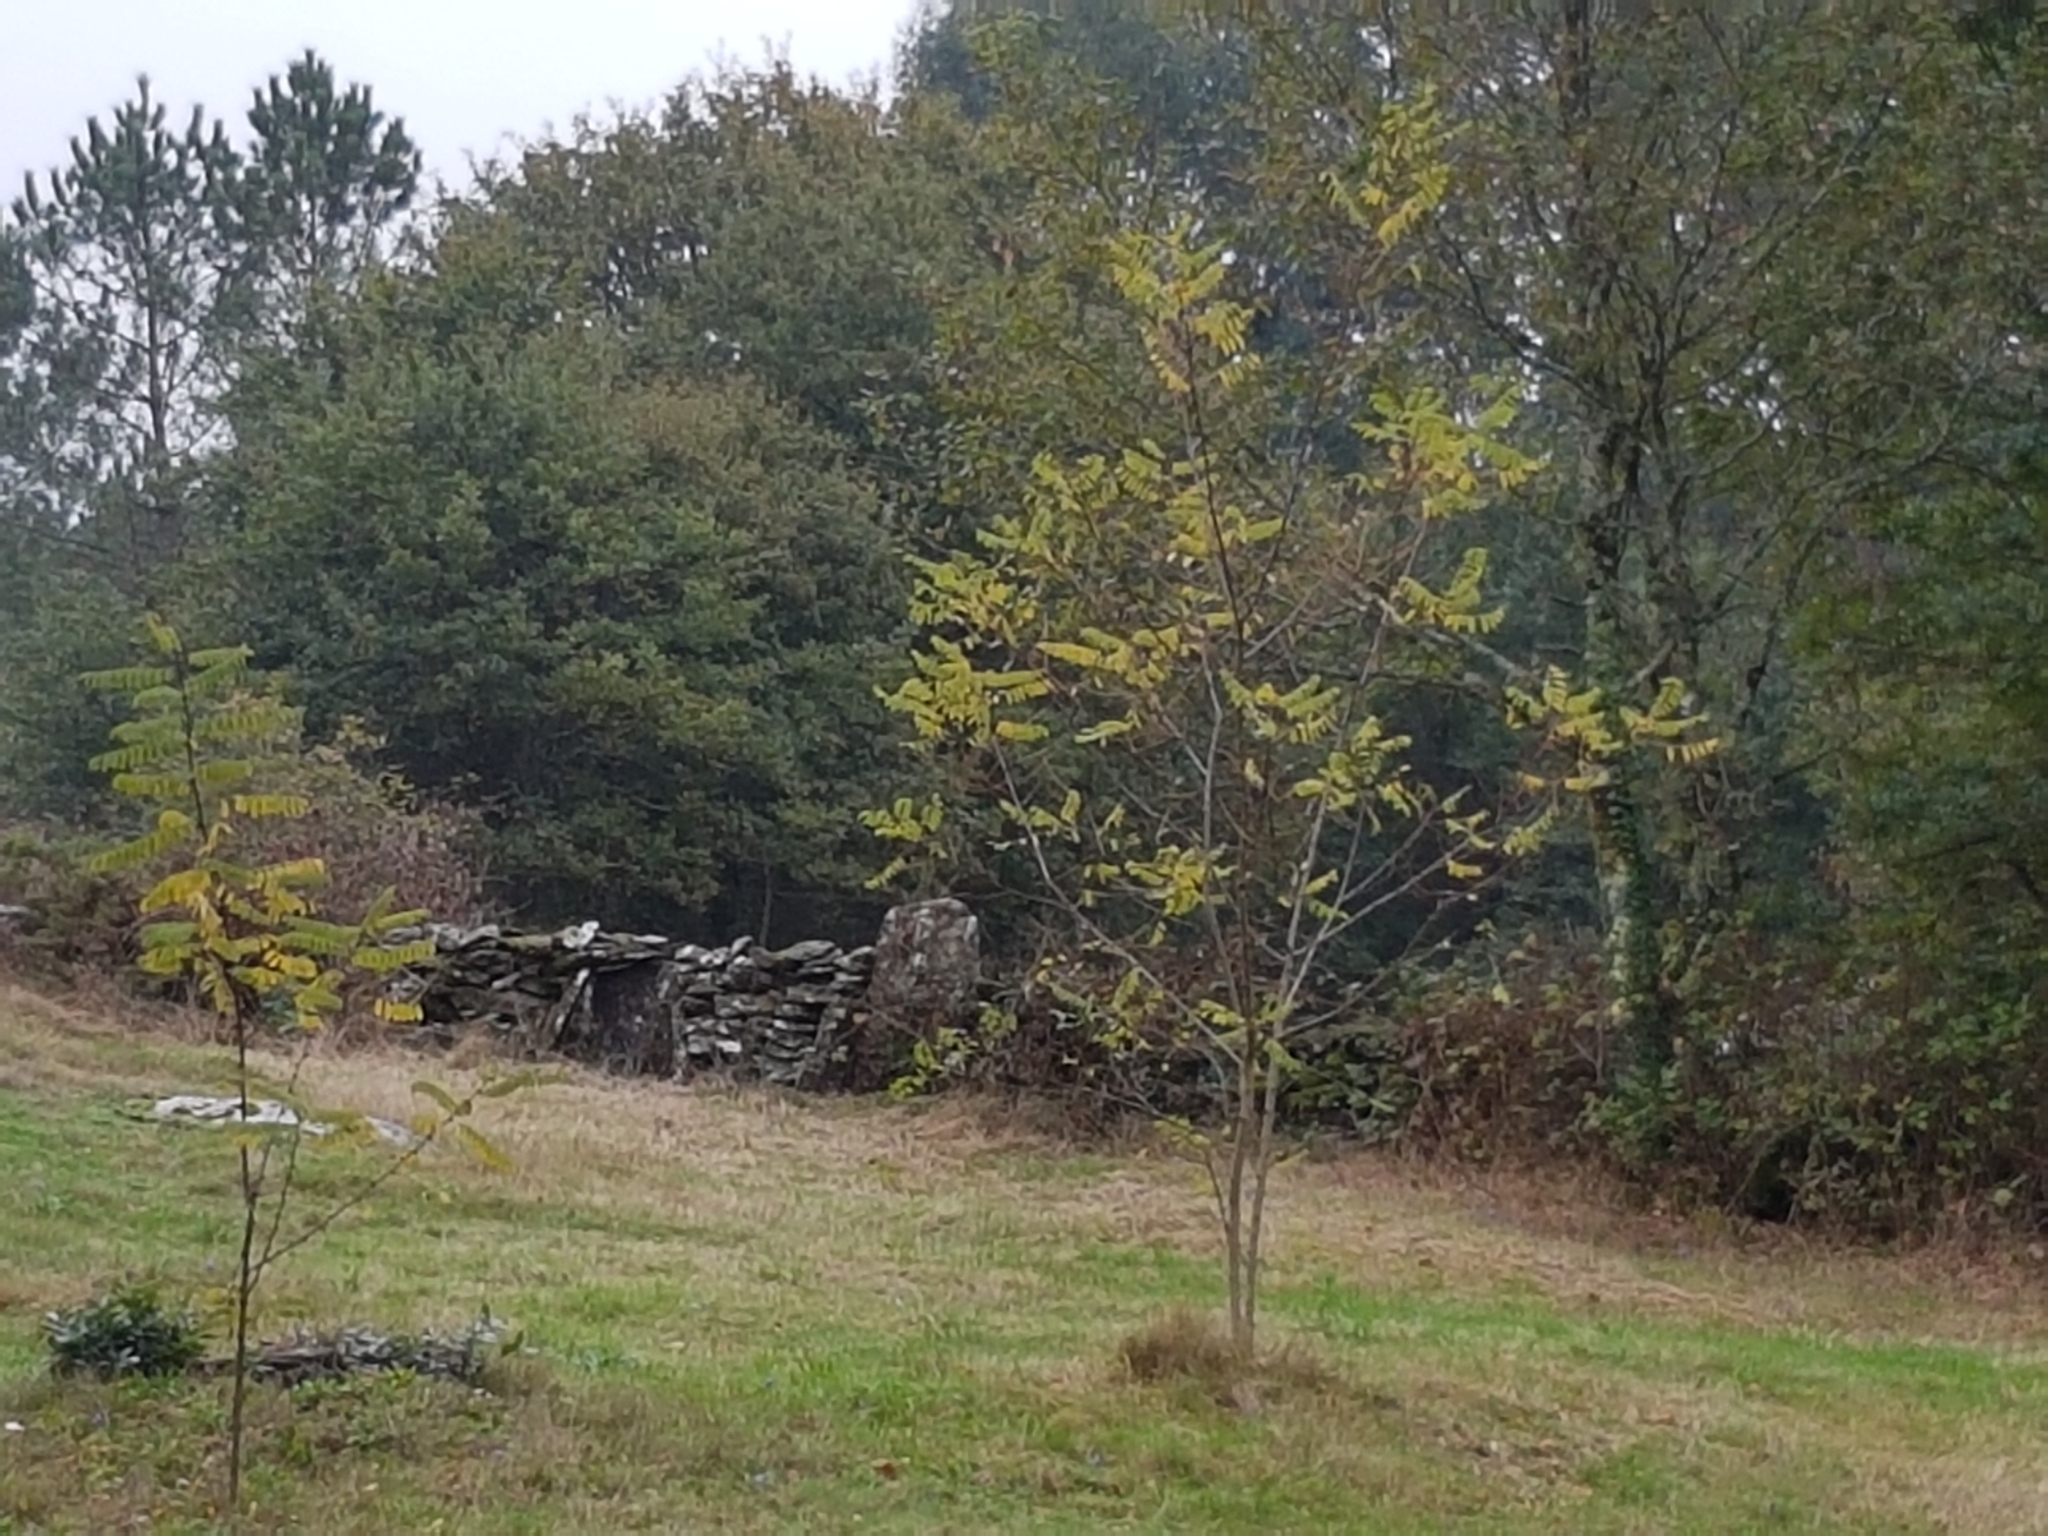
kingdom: Plantae
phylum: Tracheophyta
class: Magnoliopsida
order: Fabales
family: Fabaceae
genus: Robinia
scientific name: Robinia pseudoacacia
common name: Black locust
